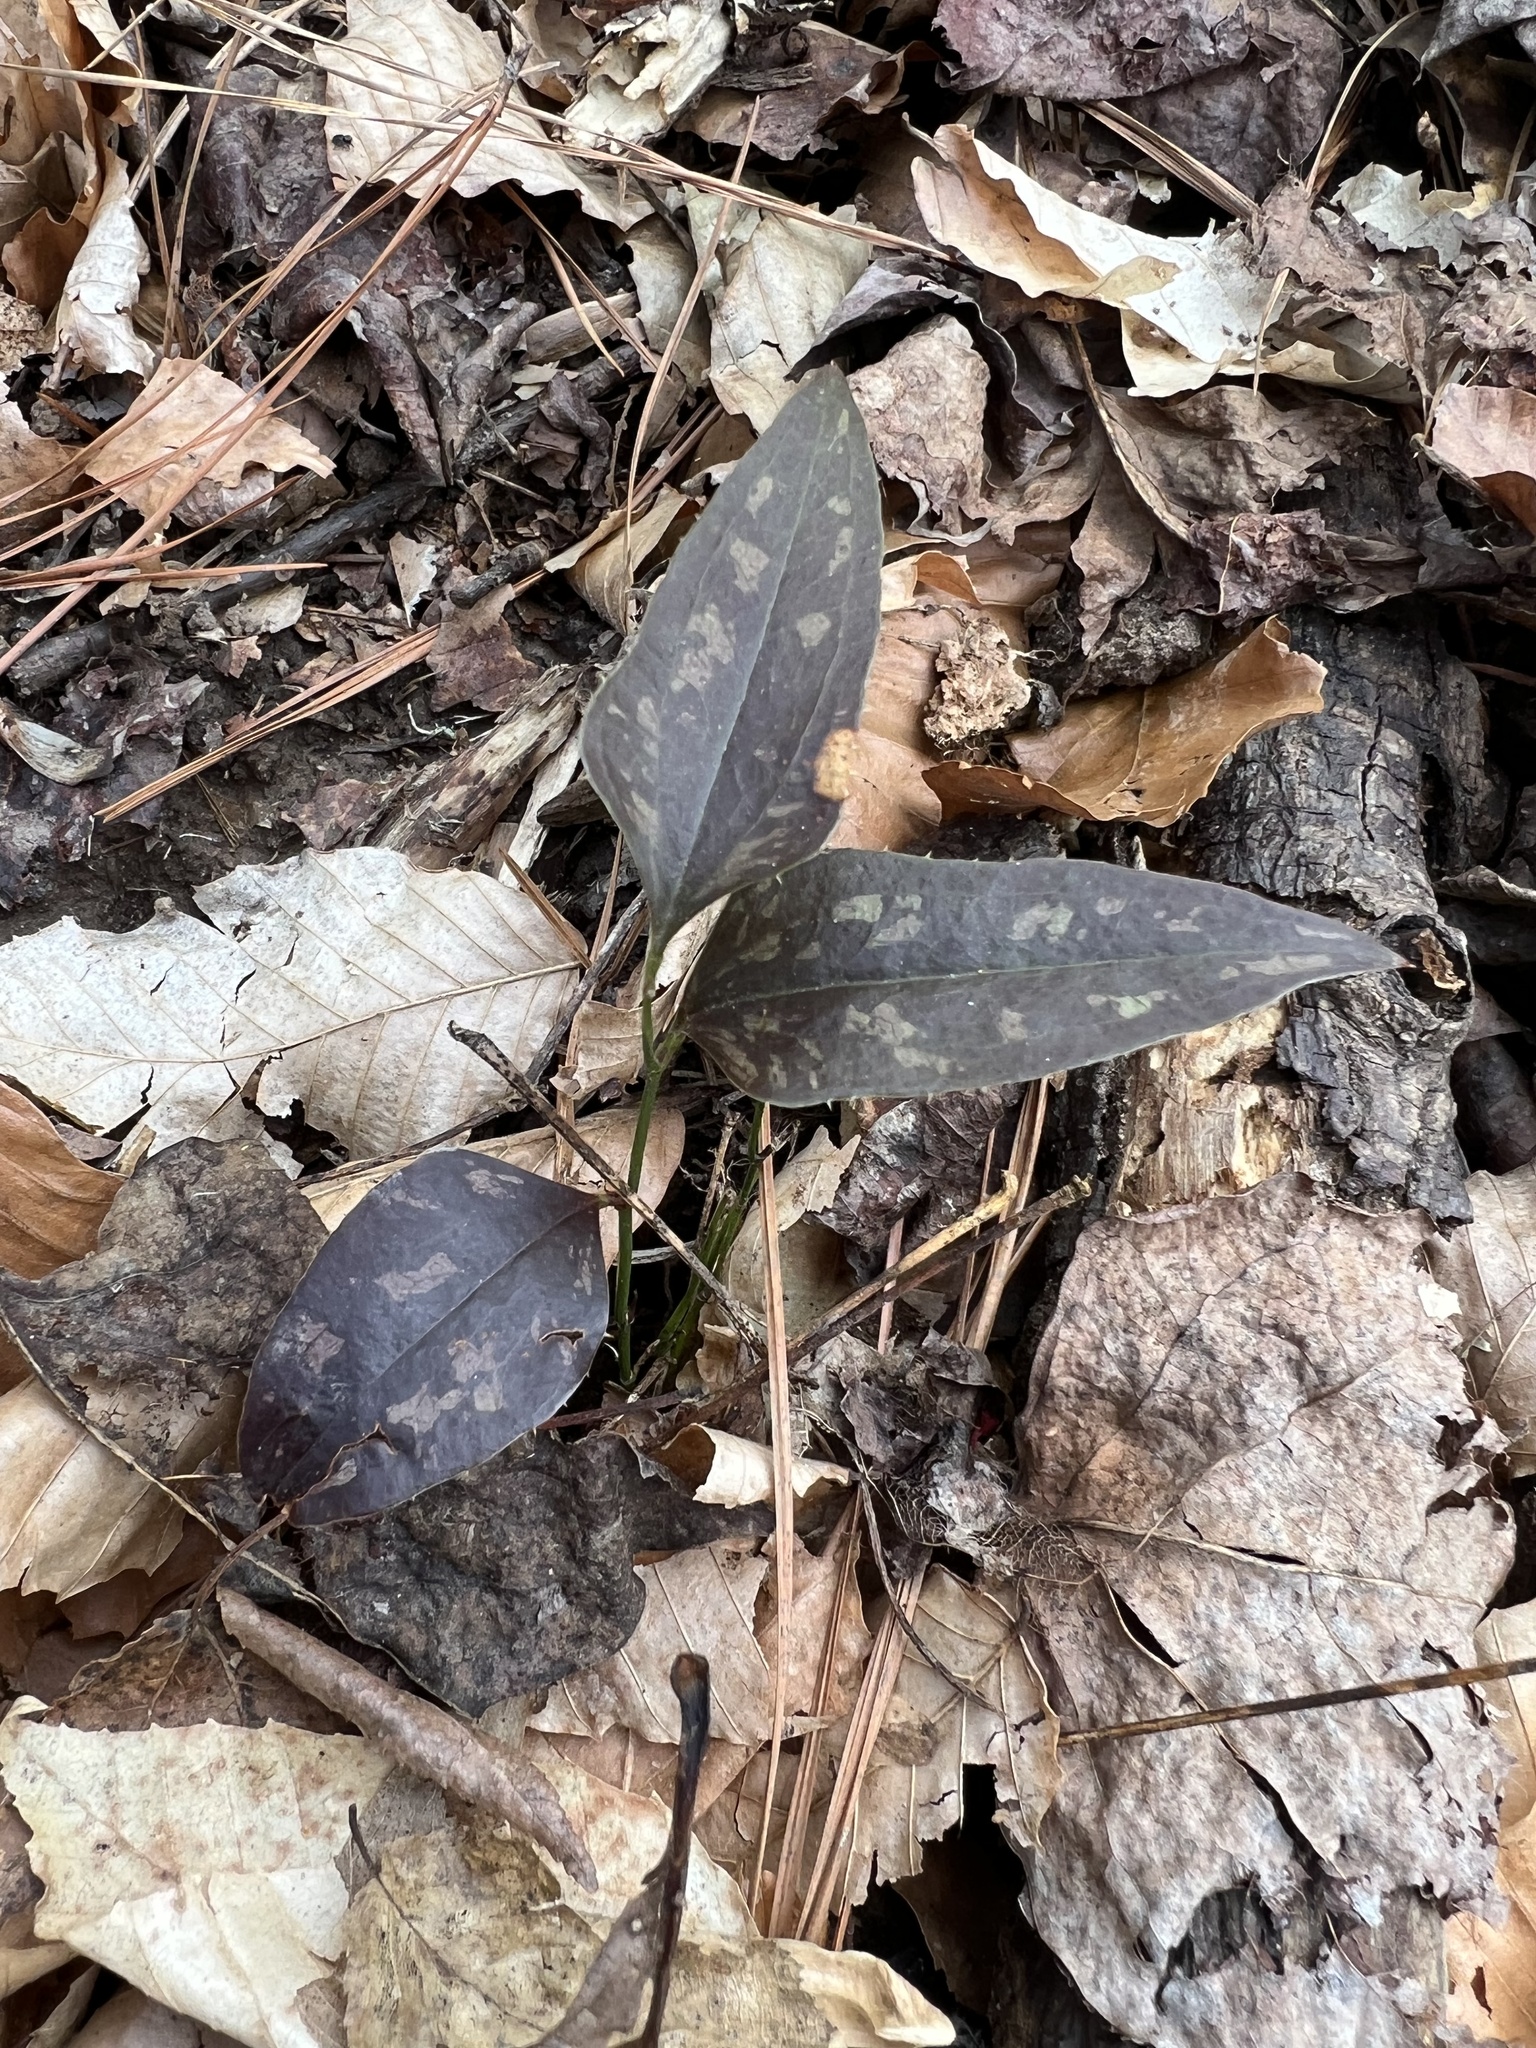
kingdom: Plantae
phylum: Tracheophyta
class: Liliopsida
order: Liliales
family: Smilacaceae
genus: Smilax
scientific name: Smilax bona-nox
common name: Catbrier
